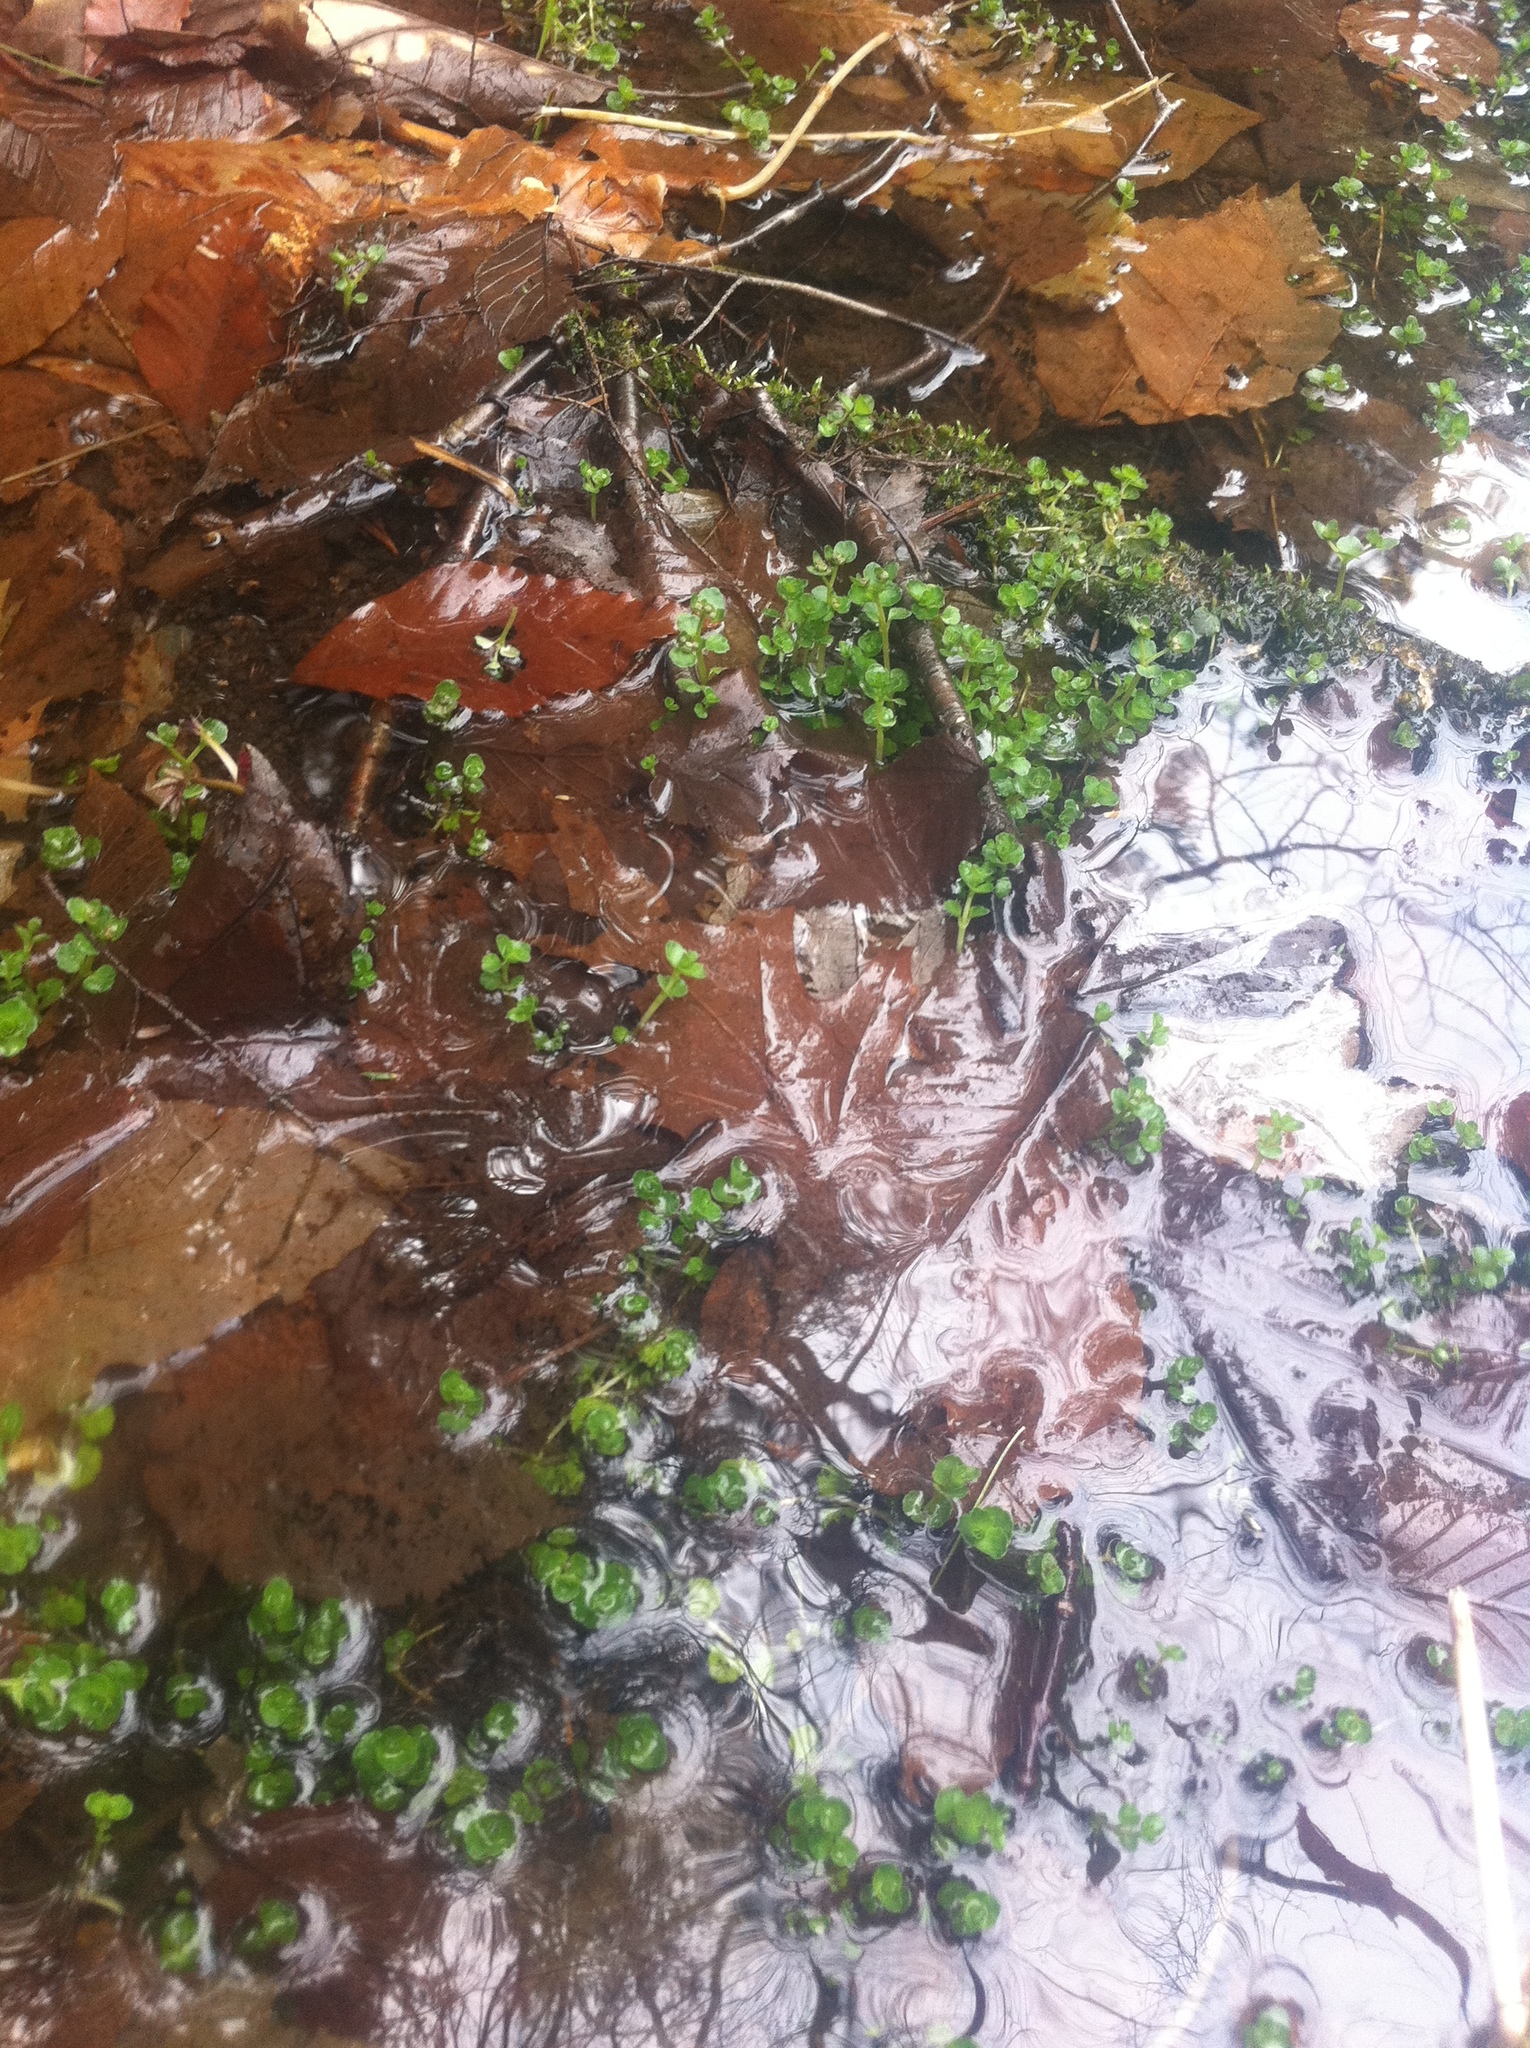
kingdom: Plantae
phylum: Tracheophyta
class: Magnoliopsida
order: Saxifragales
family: Saxifragaceae
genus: Chrysosplenium
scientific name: Chrysosplenium americanum
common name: American golden-saxifrage
